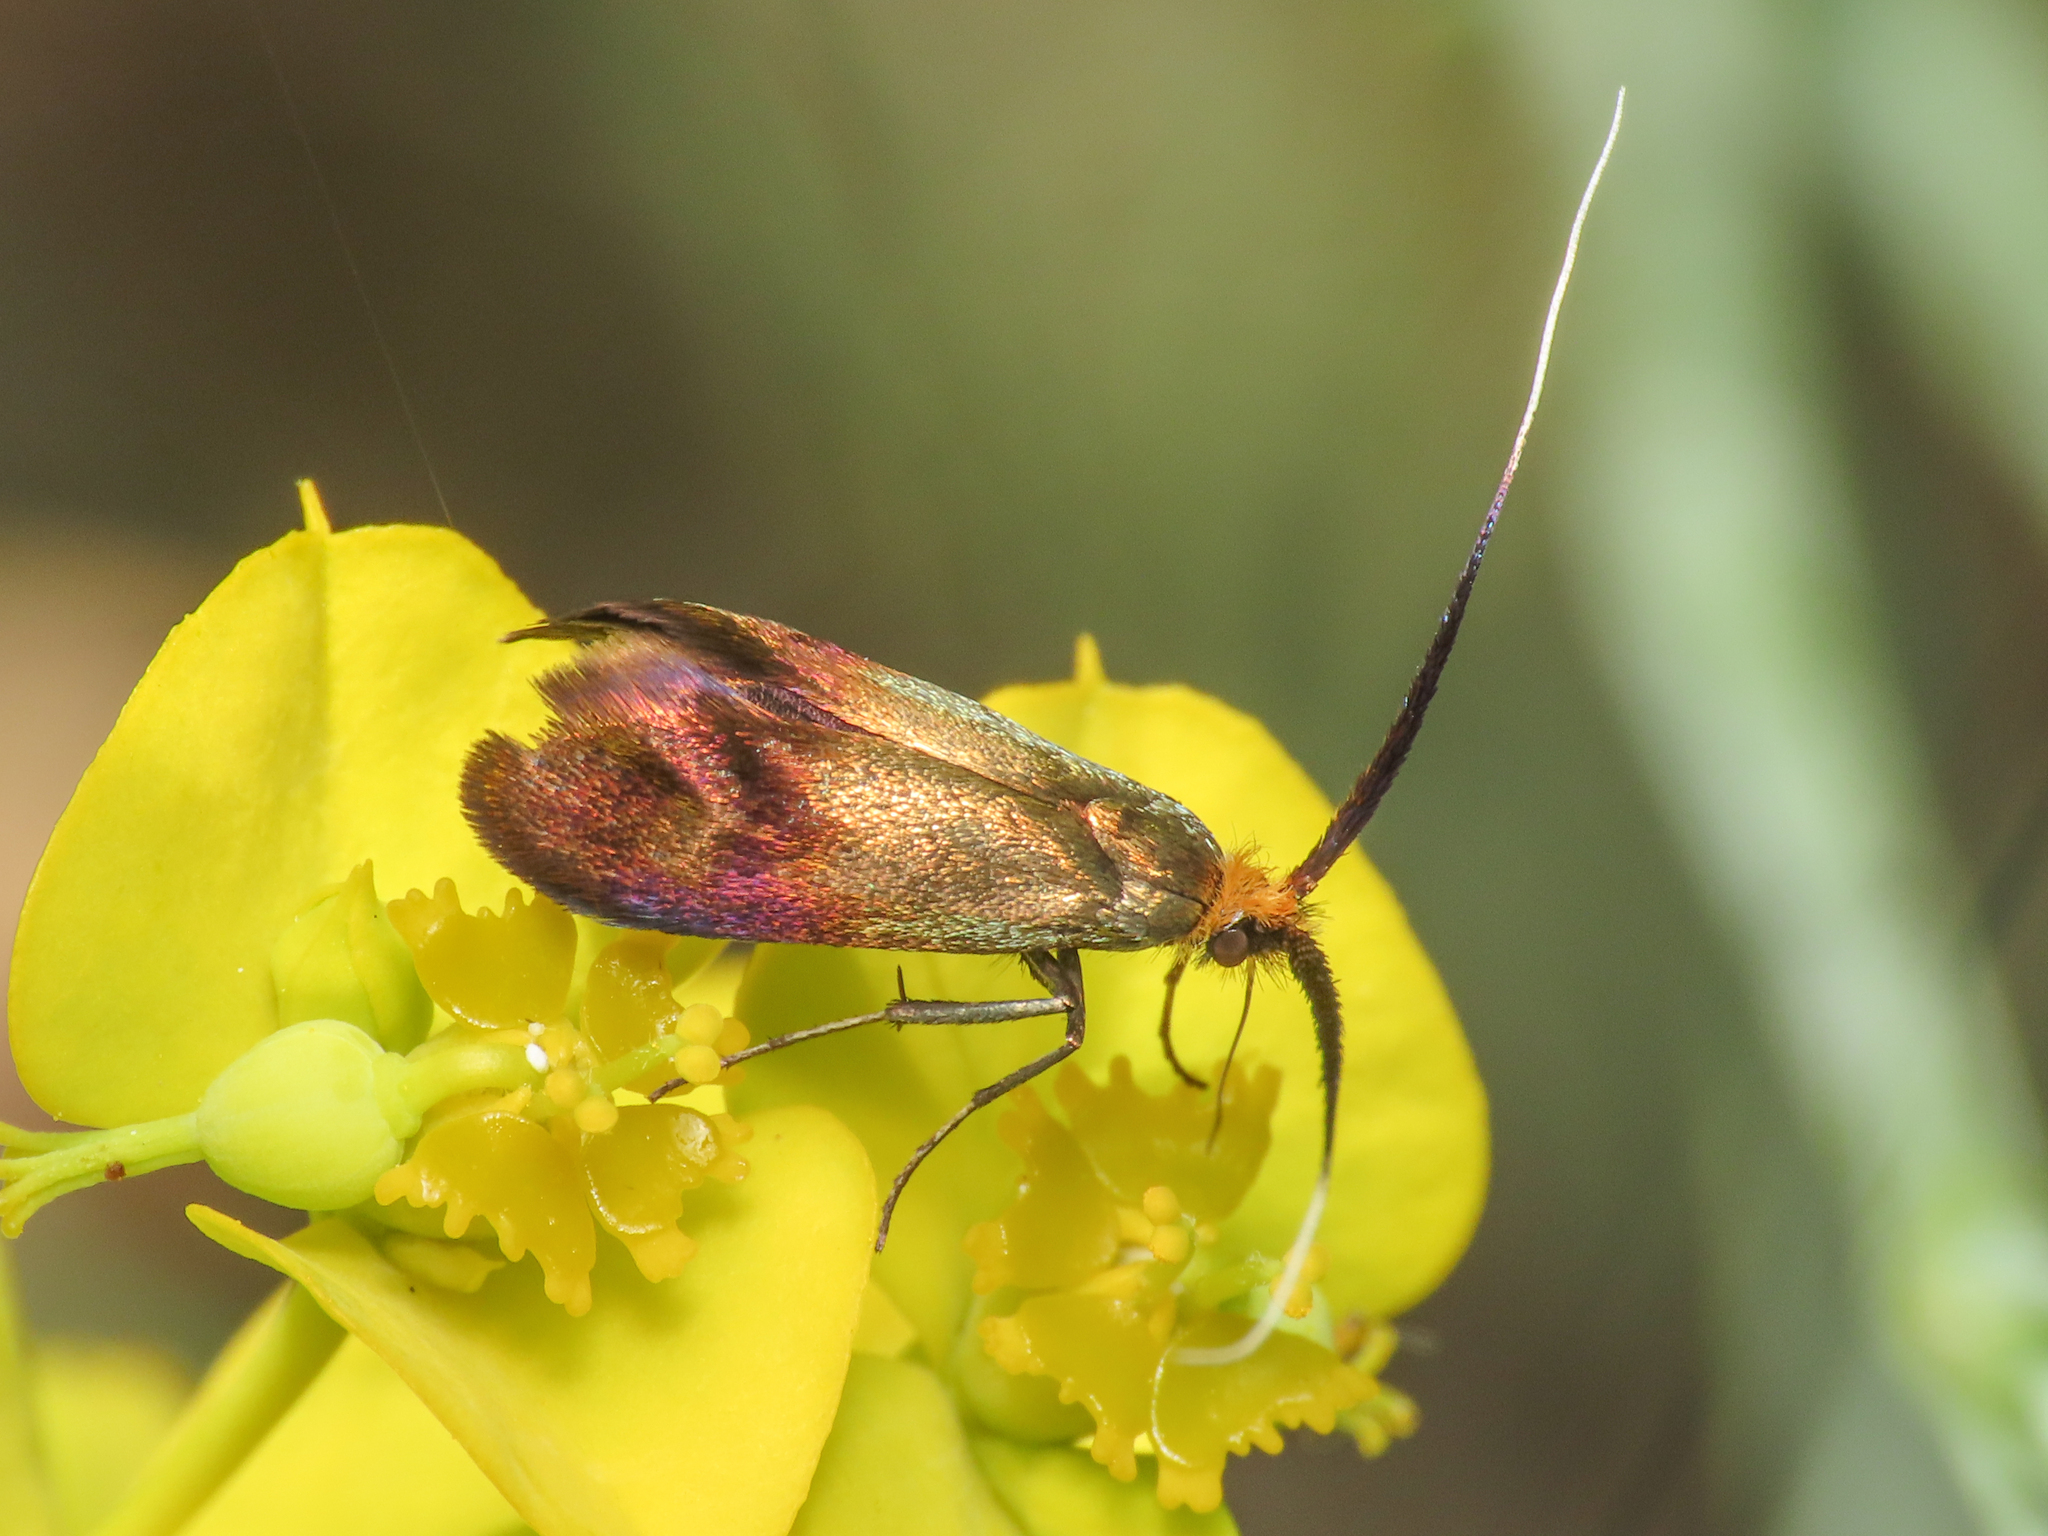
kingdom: Animalia
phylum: Arthropoda
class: Insecta
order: Lepidoptera
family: Adelidae
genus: Nemophora
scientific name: Nemophora cupriacella
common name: Coppery long-horn
